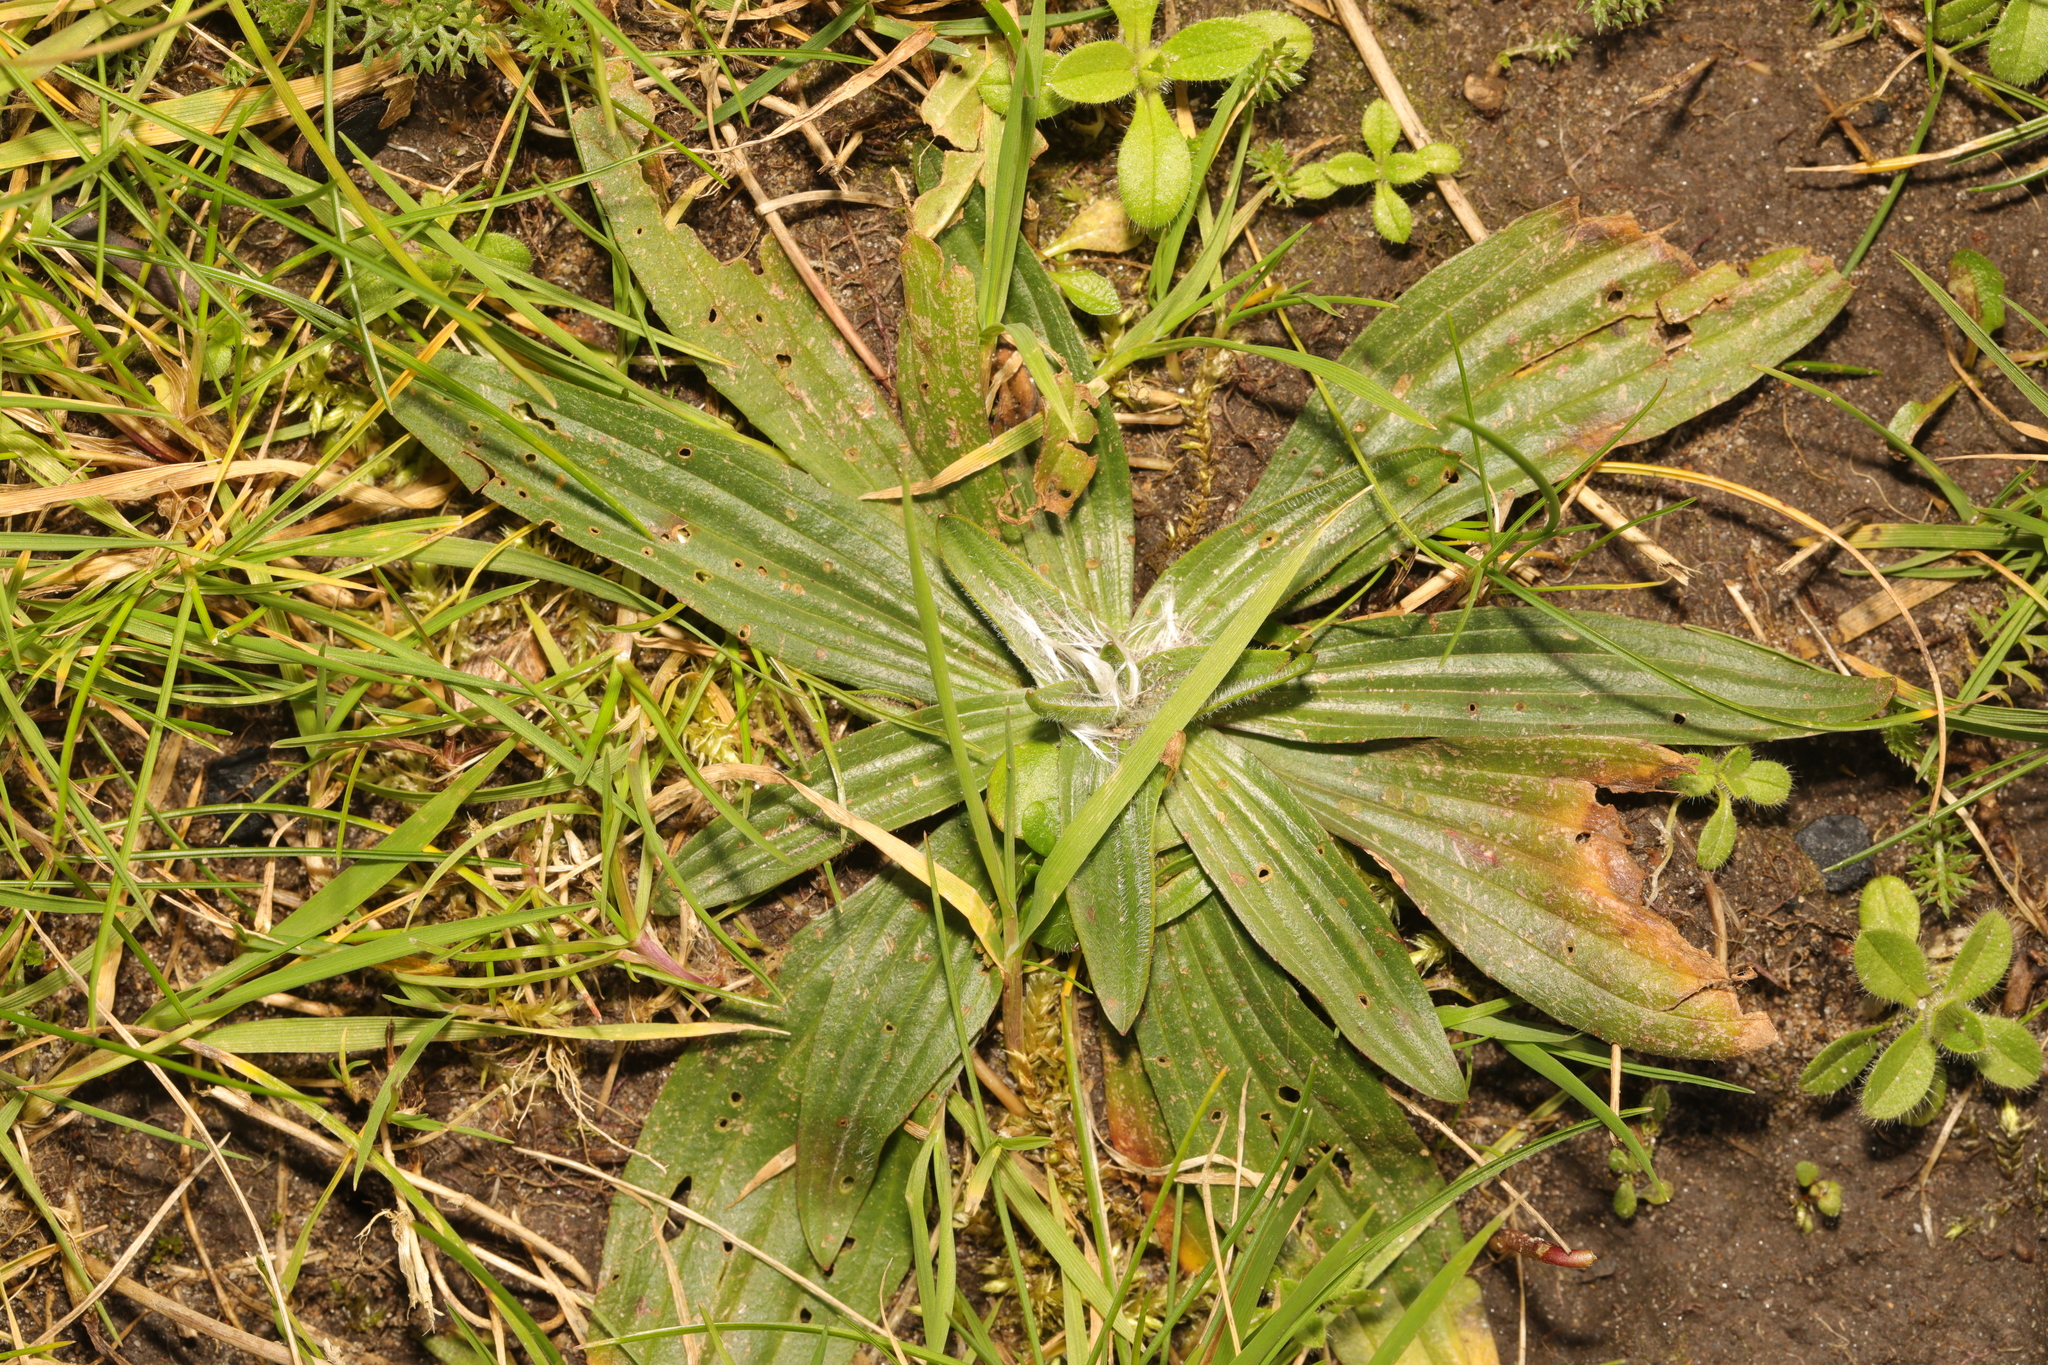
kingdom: Plantae
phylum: Tracheophyta
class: Magnoliopsida
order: Lamiales
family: Plantaginaceae
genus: Plantago
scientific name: Plantago media
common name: Hoary plantain
